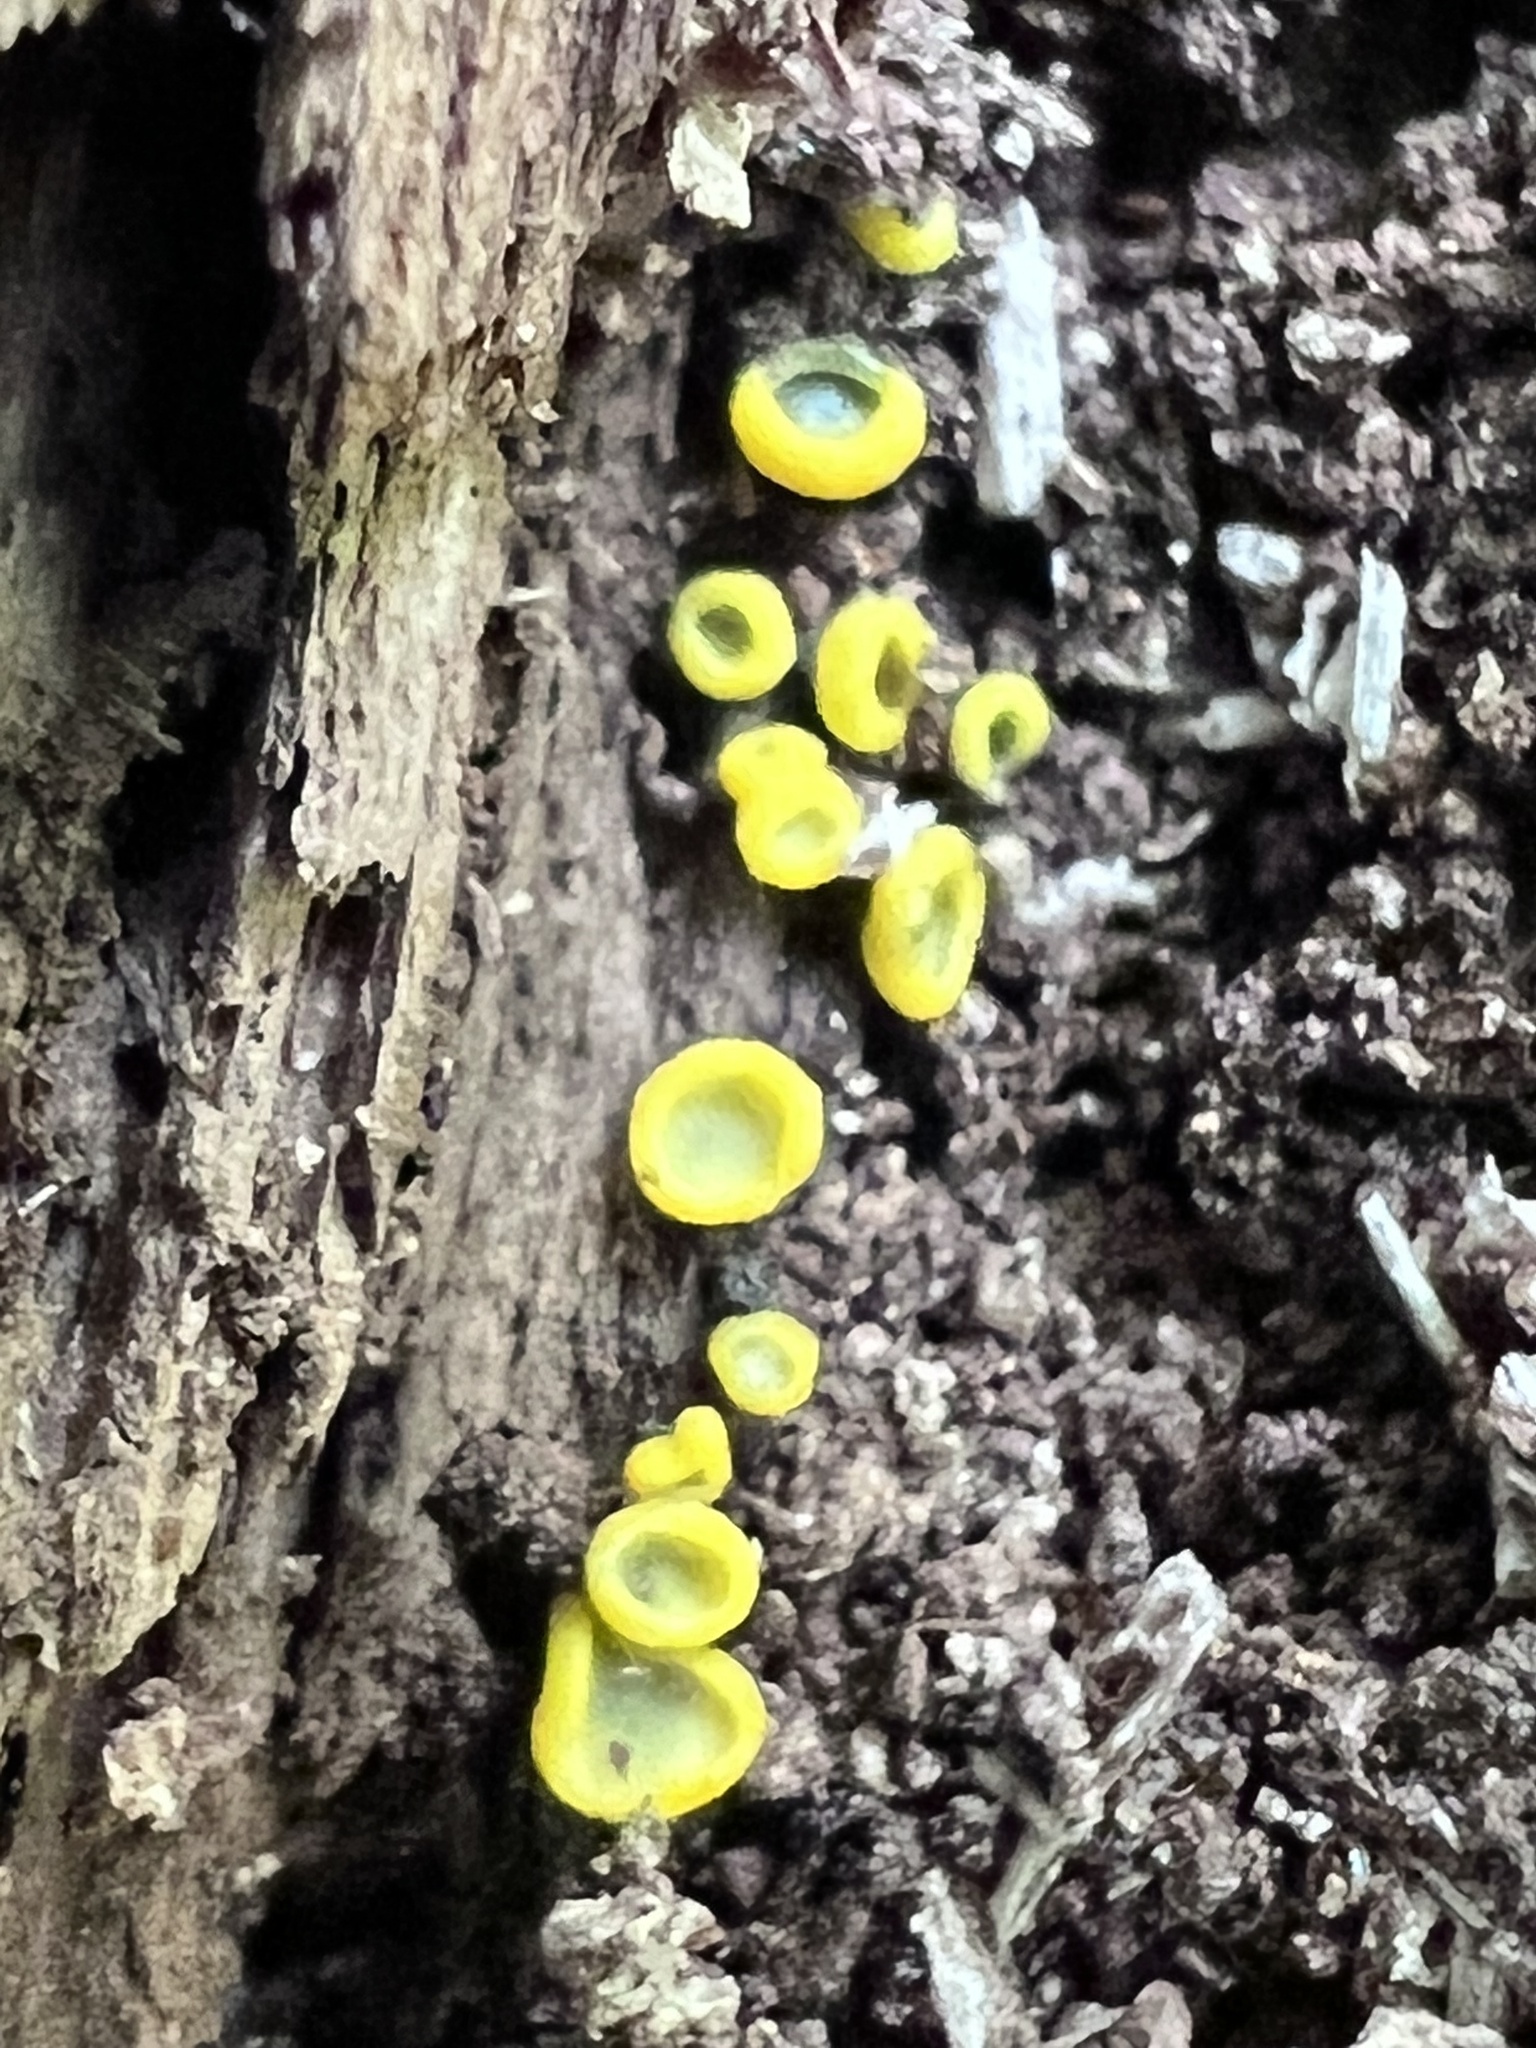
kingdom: Fungi
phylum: Ascomycota
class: Leotiomycetes
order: Helotiales
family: Chlorospleniaceae
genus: Chlorosplenium
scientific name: Chlorosplenium chlora
